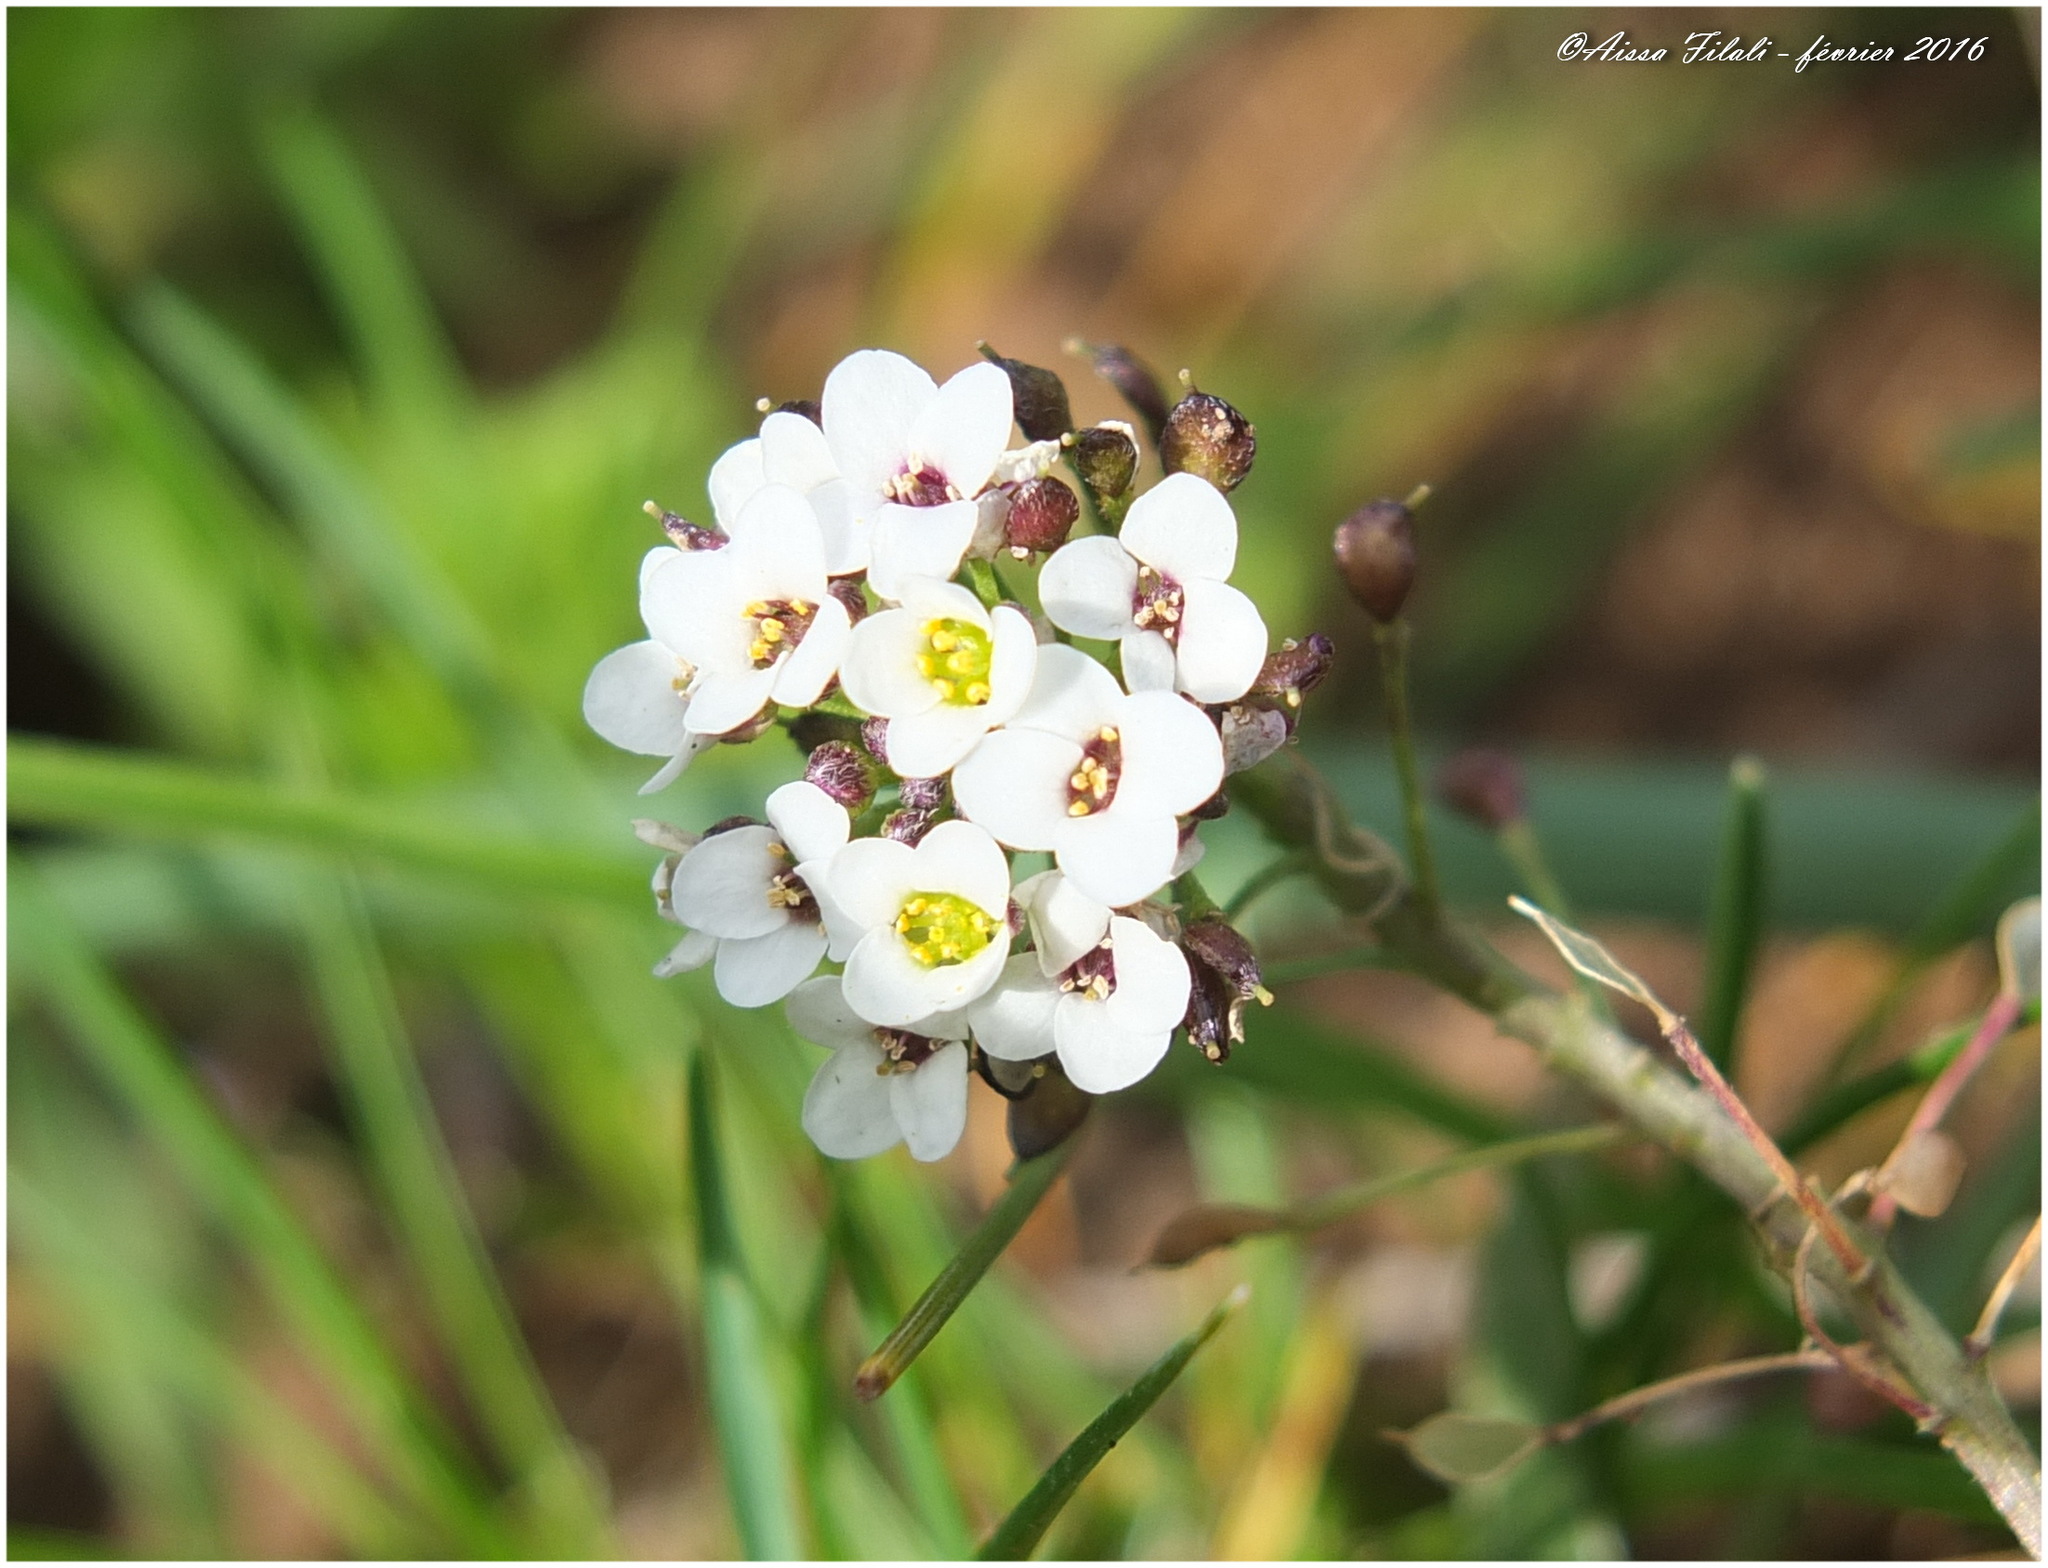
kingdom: Plantae
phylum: Tracheophyta
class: Magnoliopsida
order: Brassicales
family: Brassicaceae
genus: Lobularia
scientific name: Lobularia maritima
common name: Sweet alison
